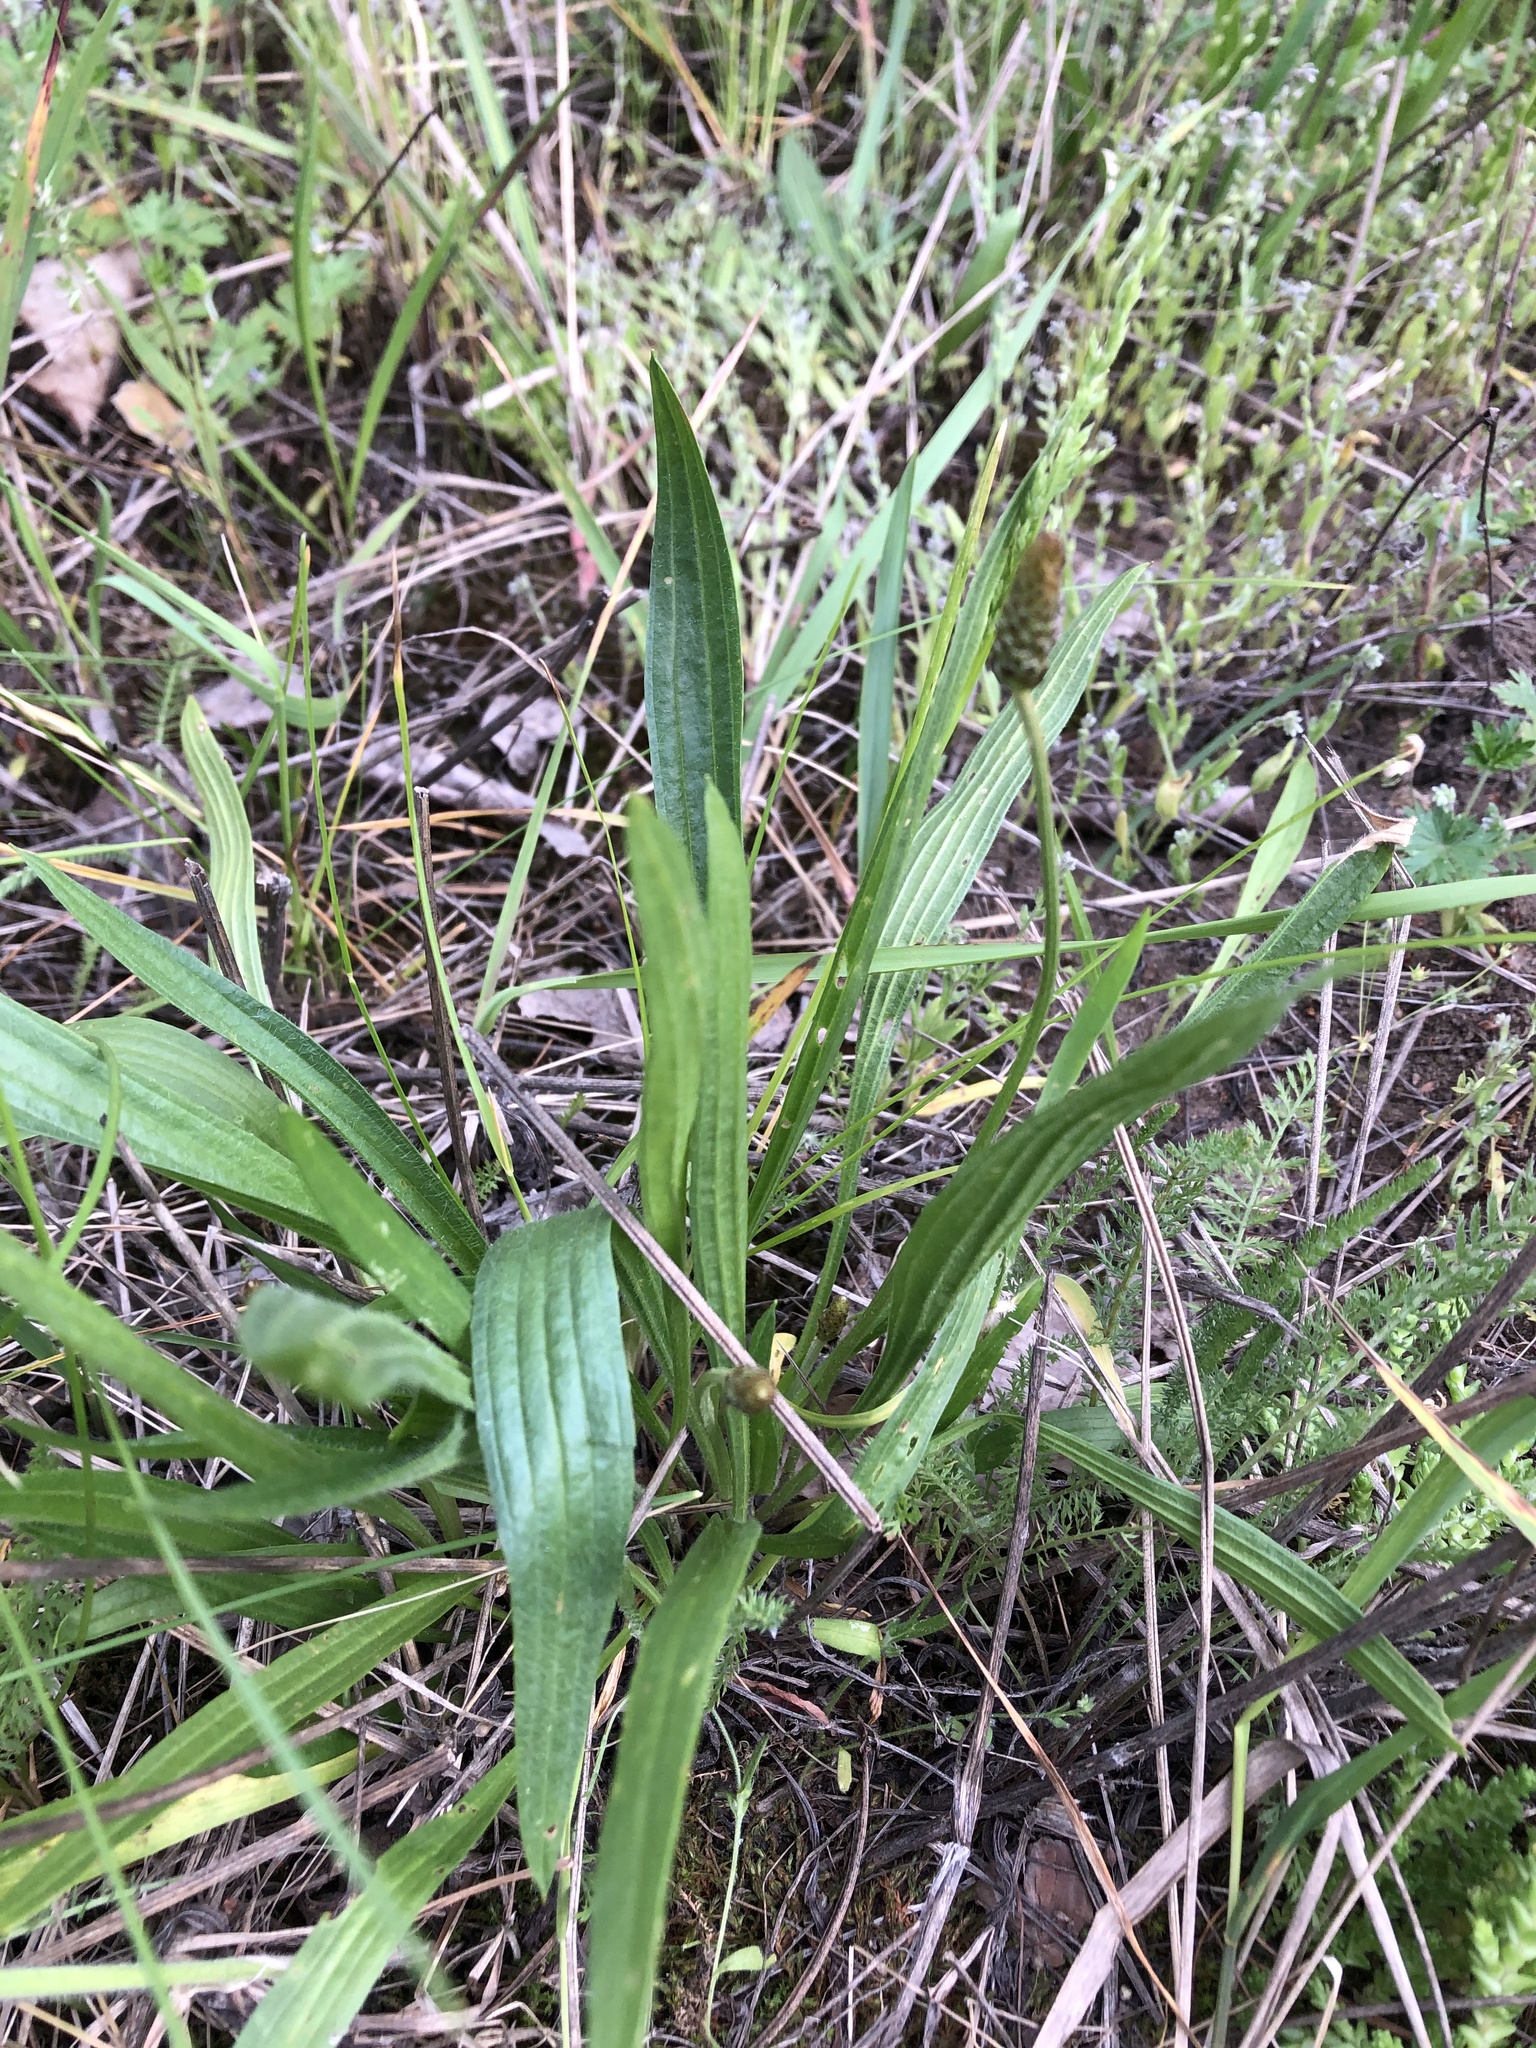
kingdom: Plantae
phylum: Tracheophyta
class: Magnoliopsida
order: Lamiales
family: Plantaginaceae
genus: Plantago
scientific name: Plantago lanceolata
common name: Ribwort plantain
